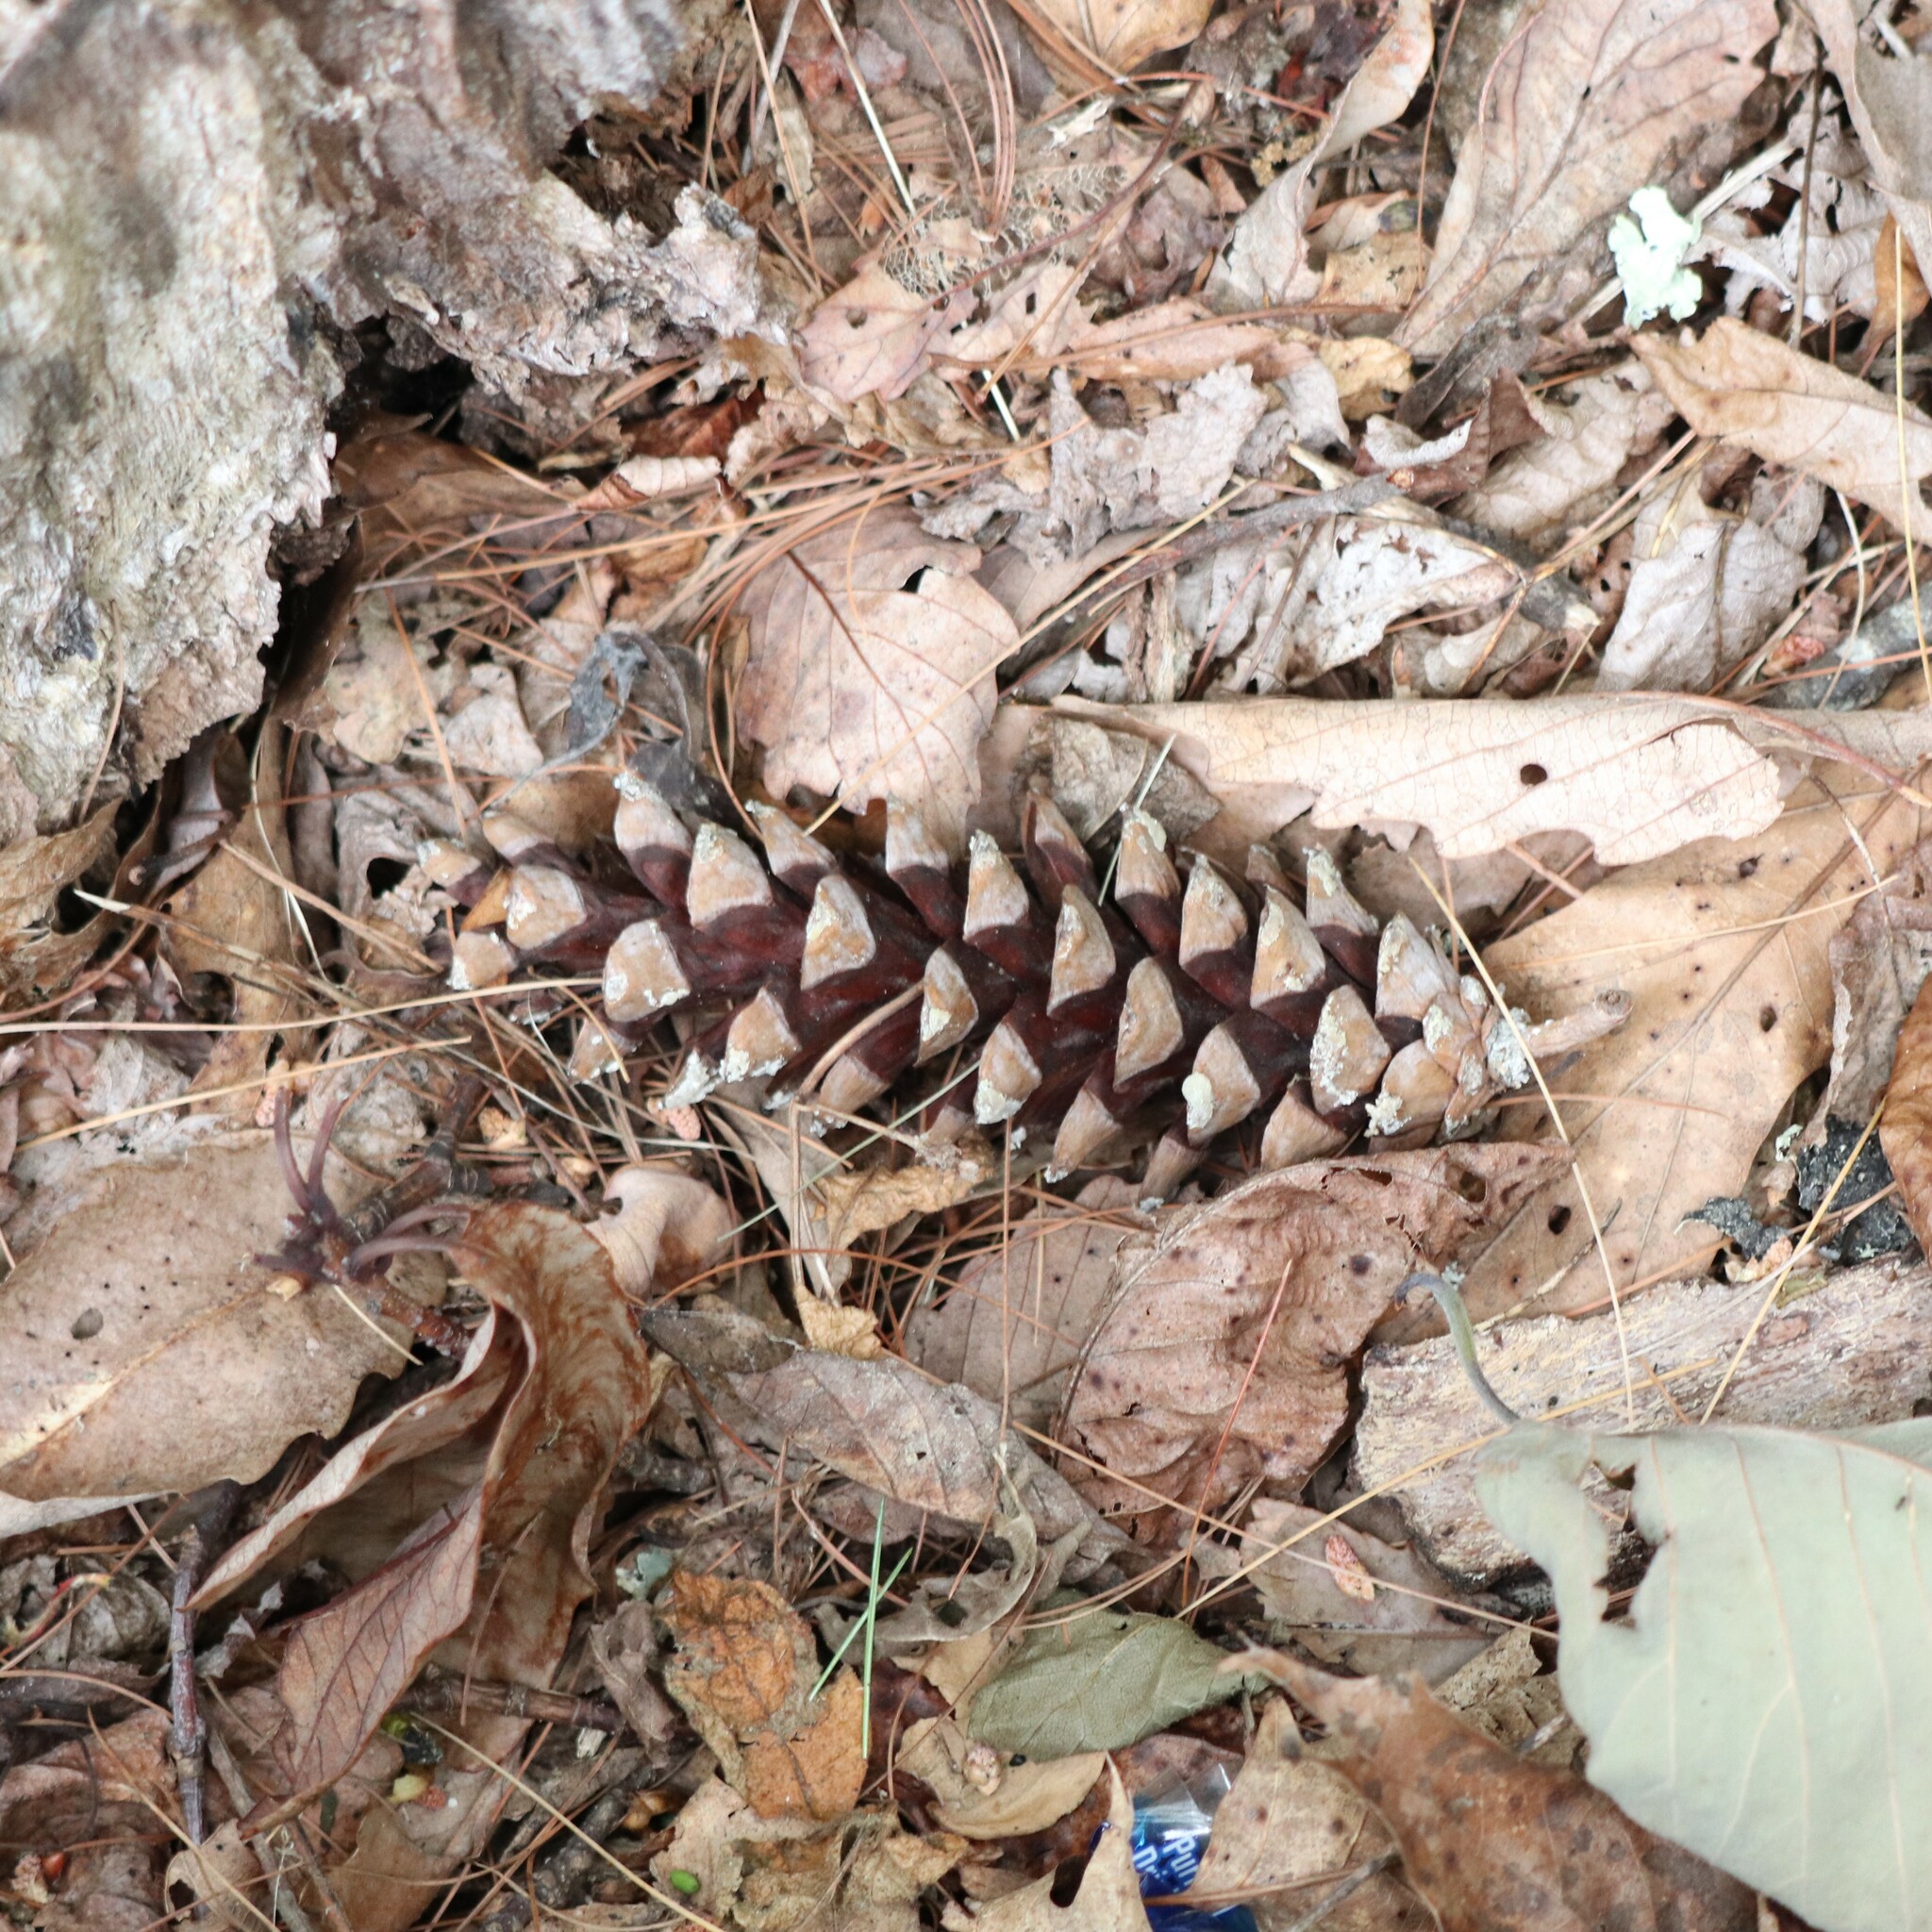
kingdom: Plantae
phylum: Tracheophyta
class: Pinopsida
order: Pinales
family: Pinaceae
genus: Pinus
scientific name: Pinus strobus
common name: Weymouth pine
